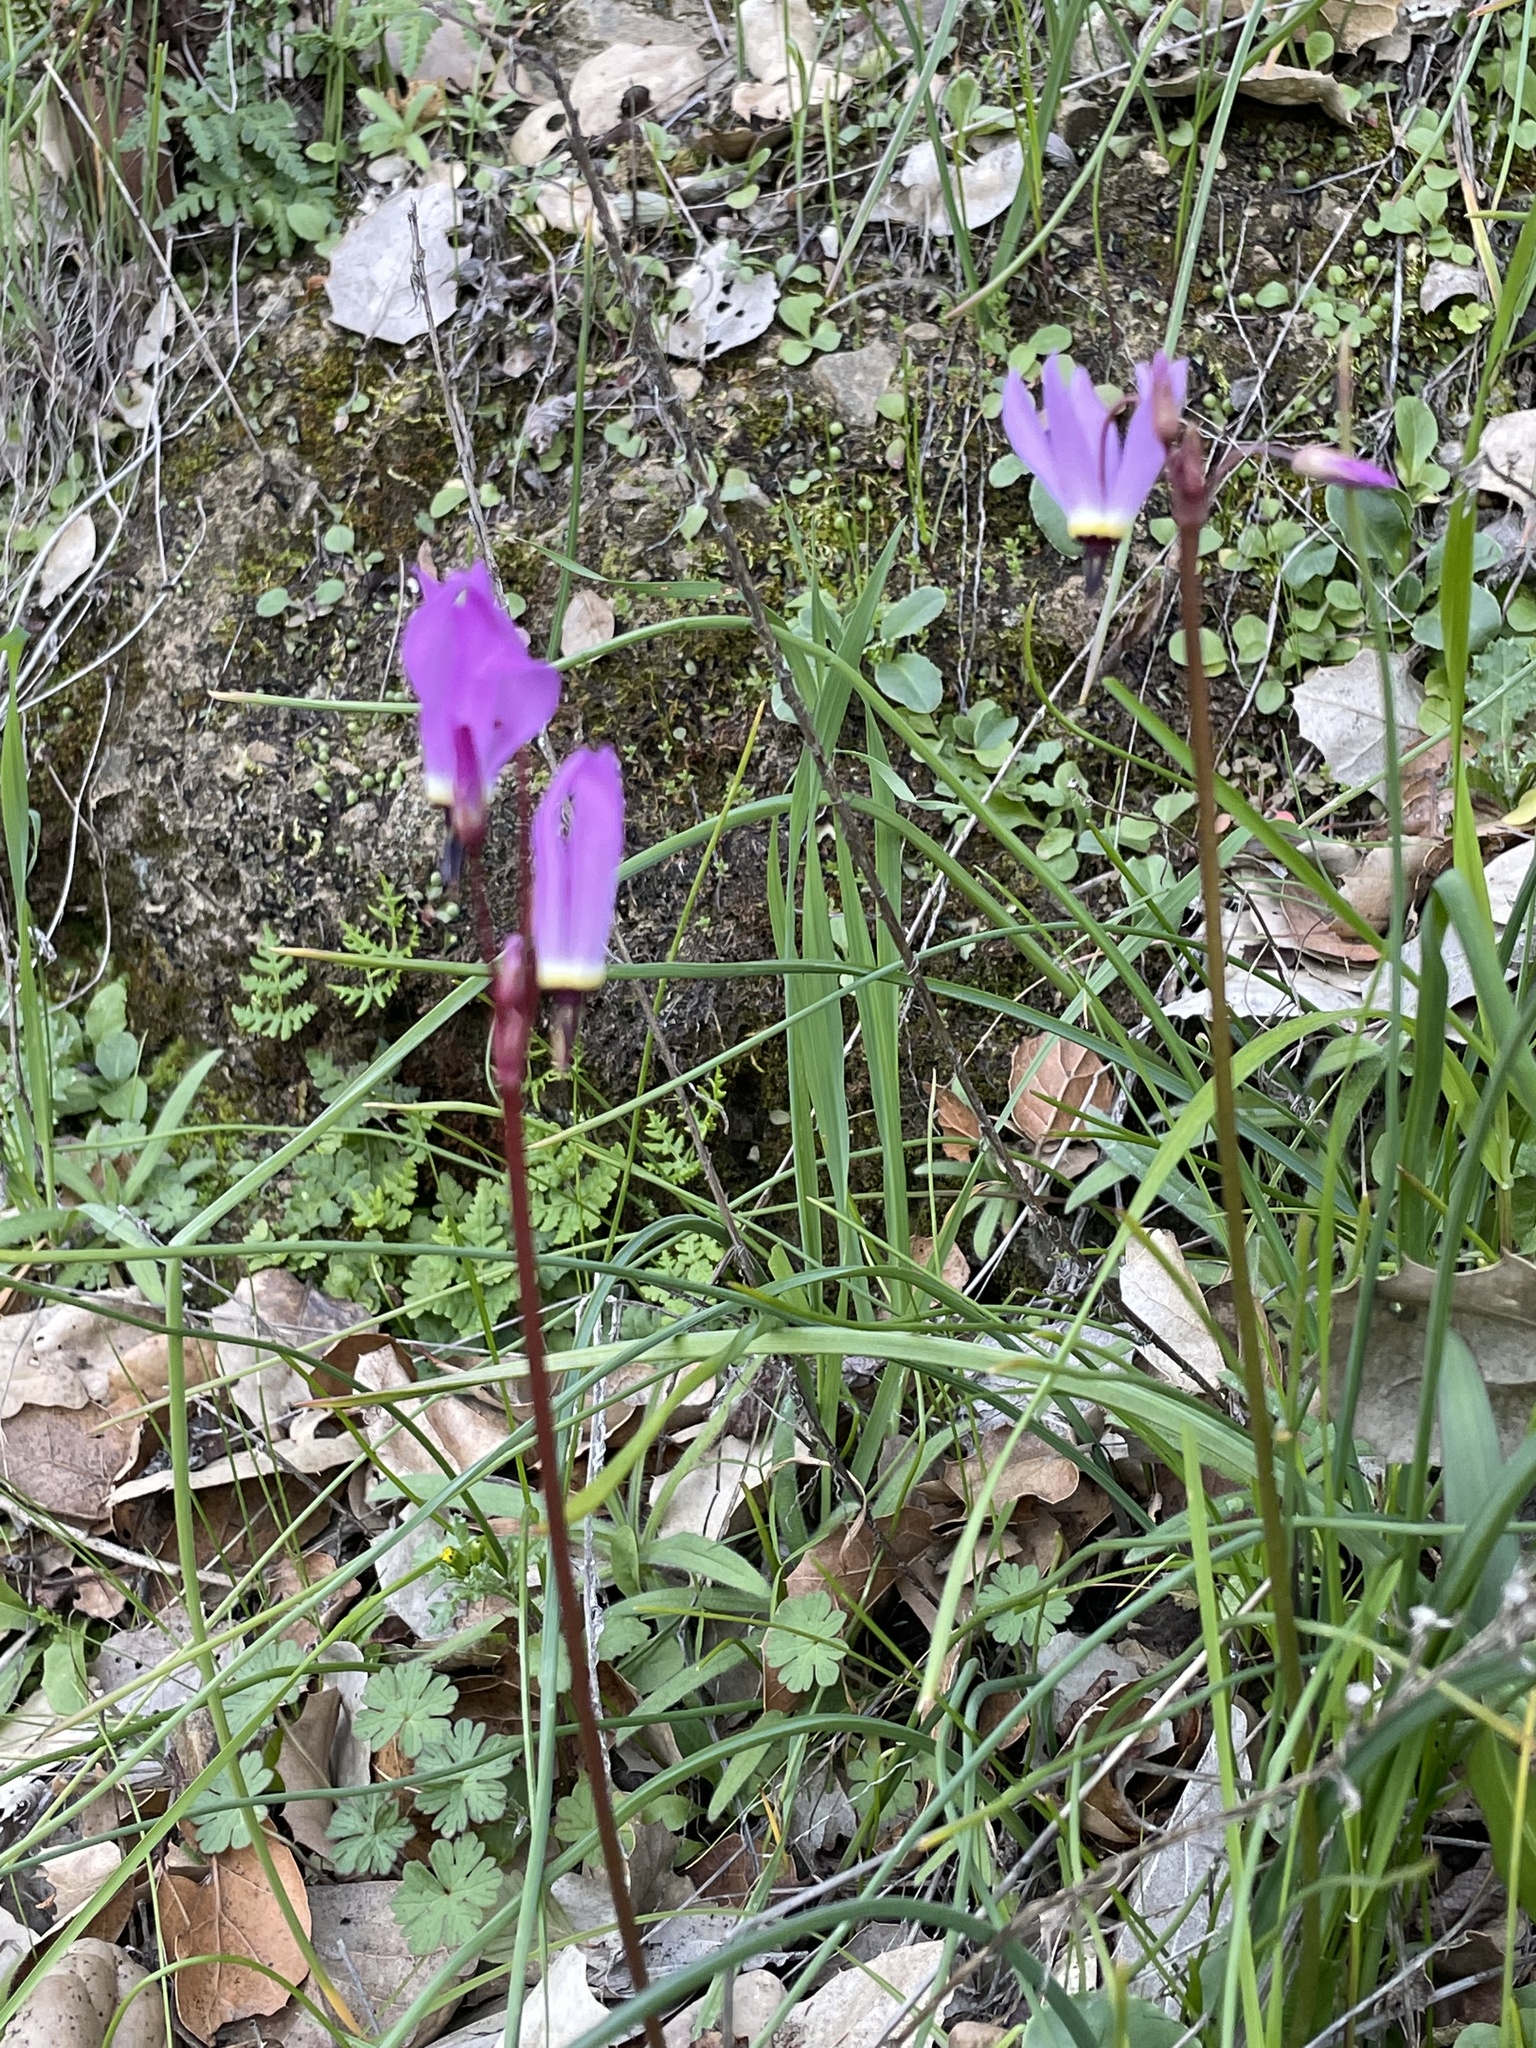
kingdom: Plantae
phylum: Tracheophyta
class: Magnoliopsida
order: Ericales
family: Primulaceae
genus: Dodecatheon
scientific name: Dodecatheon hendersonii
